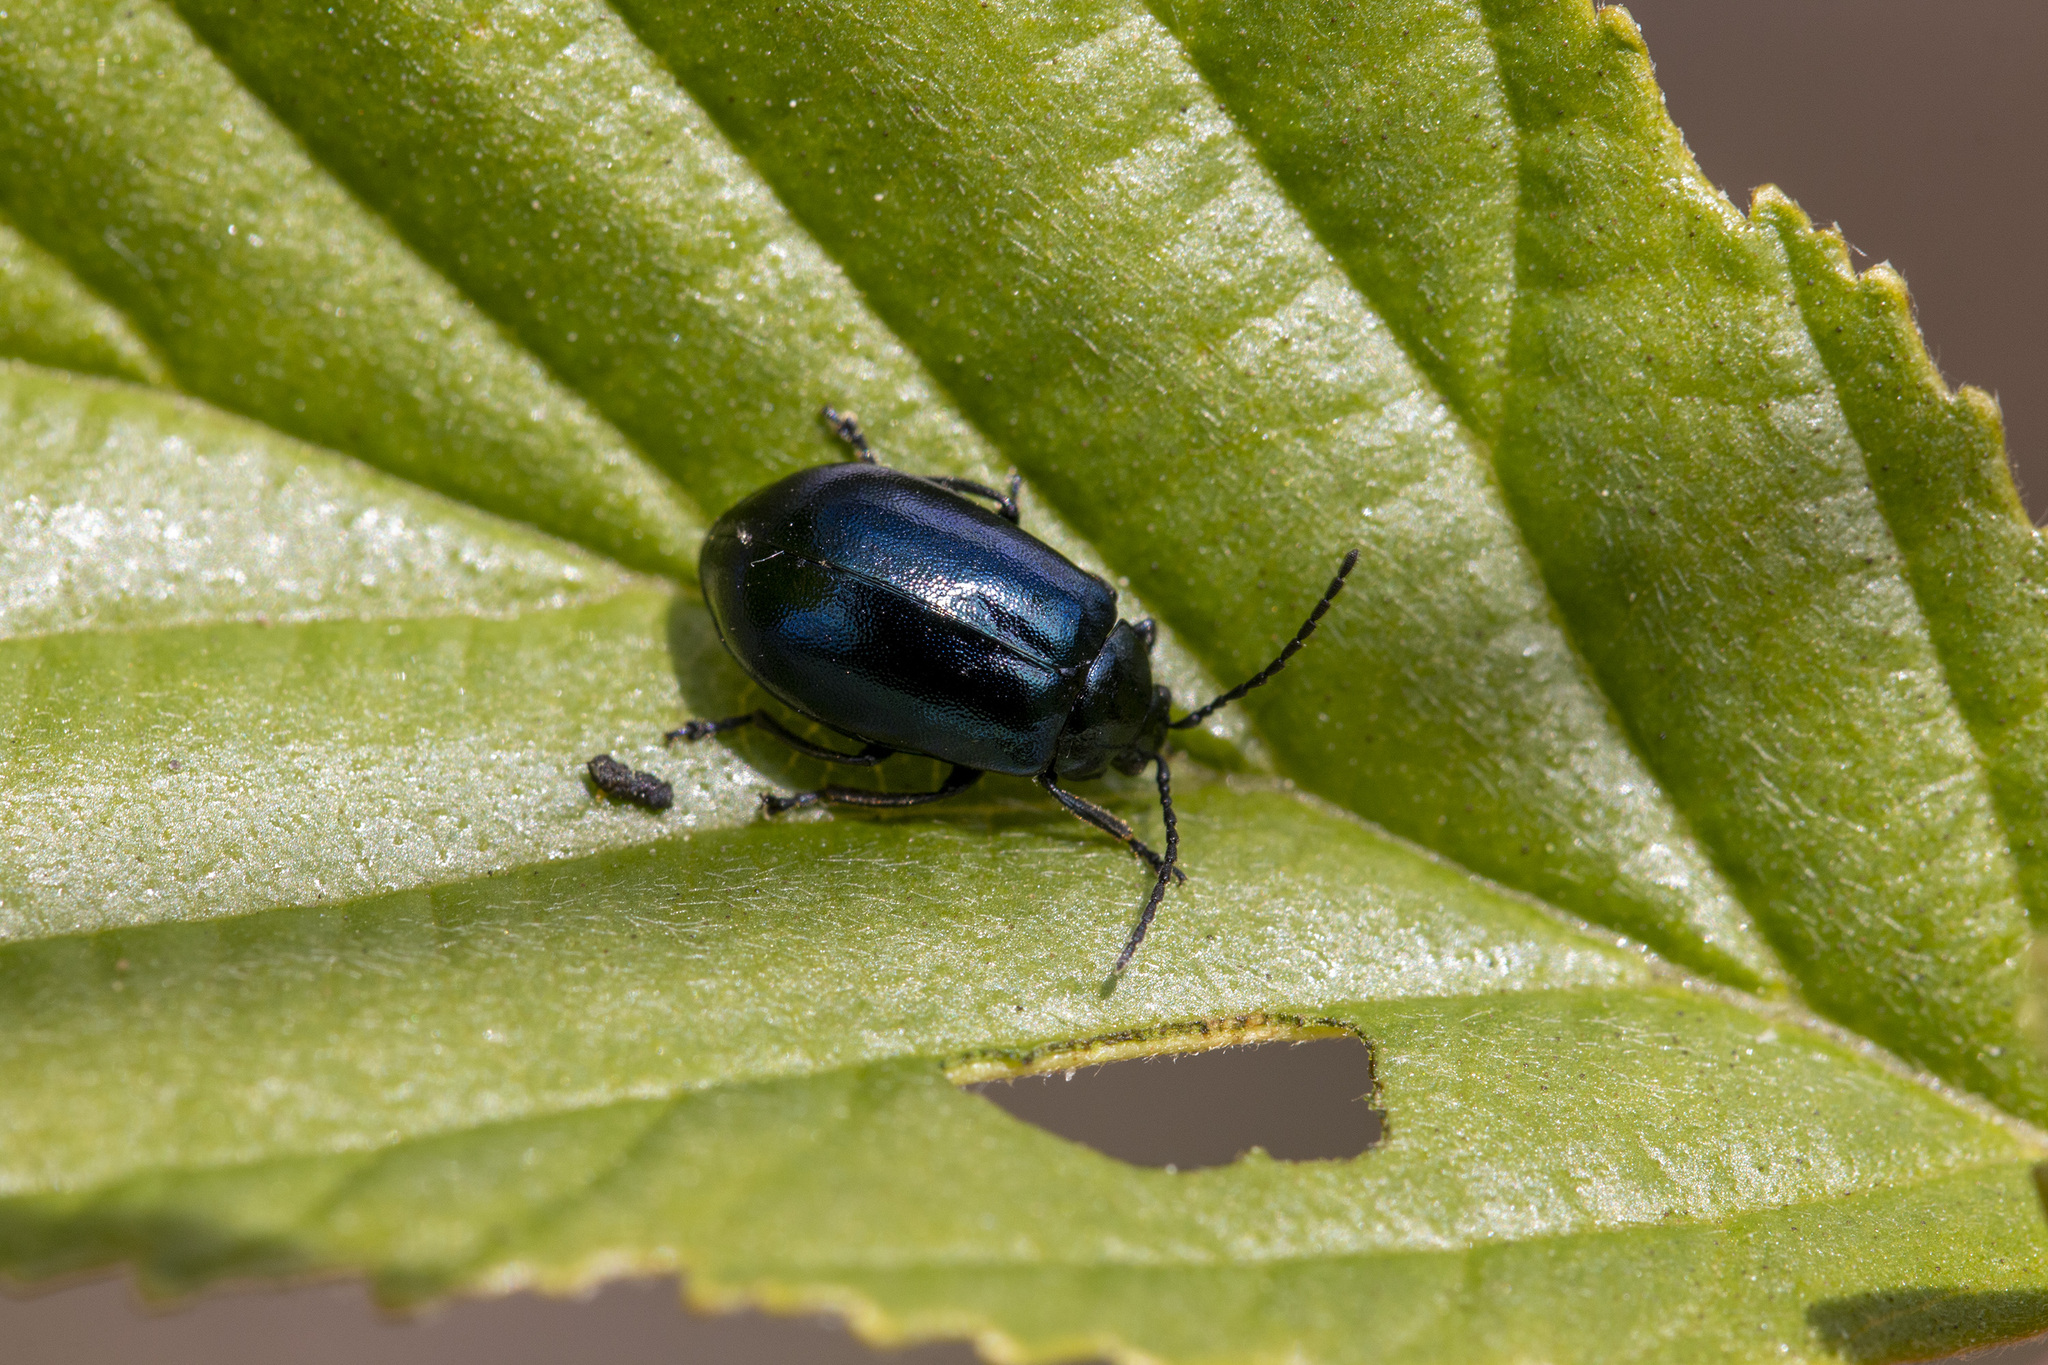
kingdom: Animalia
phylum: Arthropoda
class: Insecta
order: Coleoptera
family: Chrysomelidae
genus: Agelastica
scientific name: Agelastica alni
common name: Alder leaf beetle
